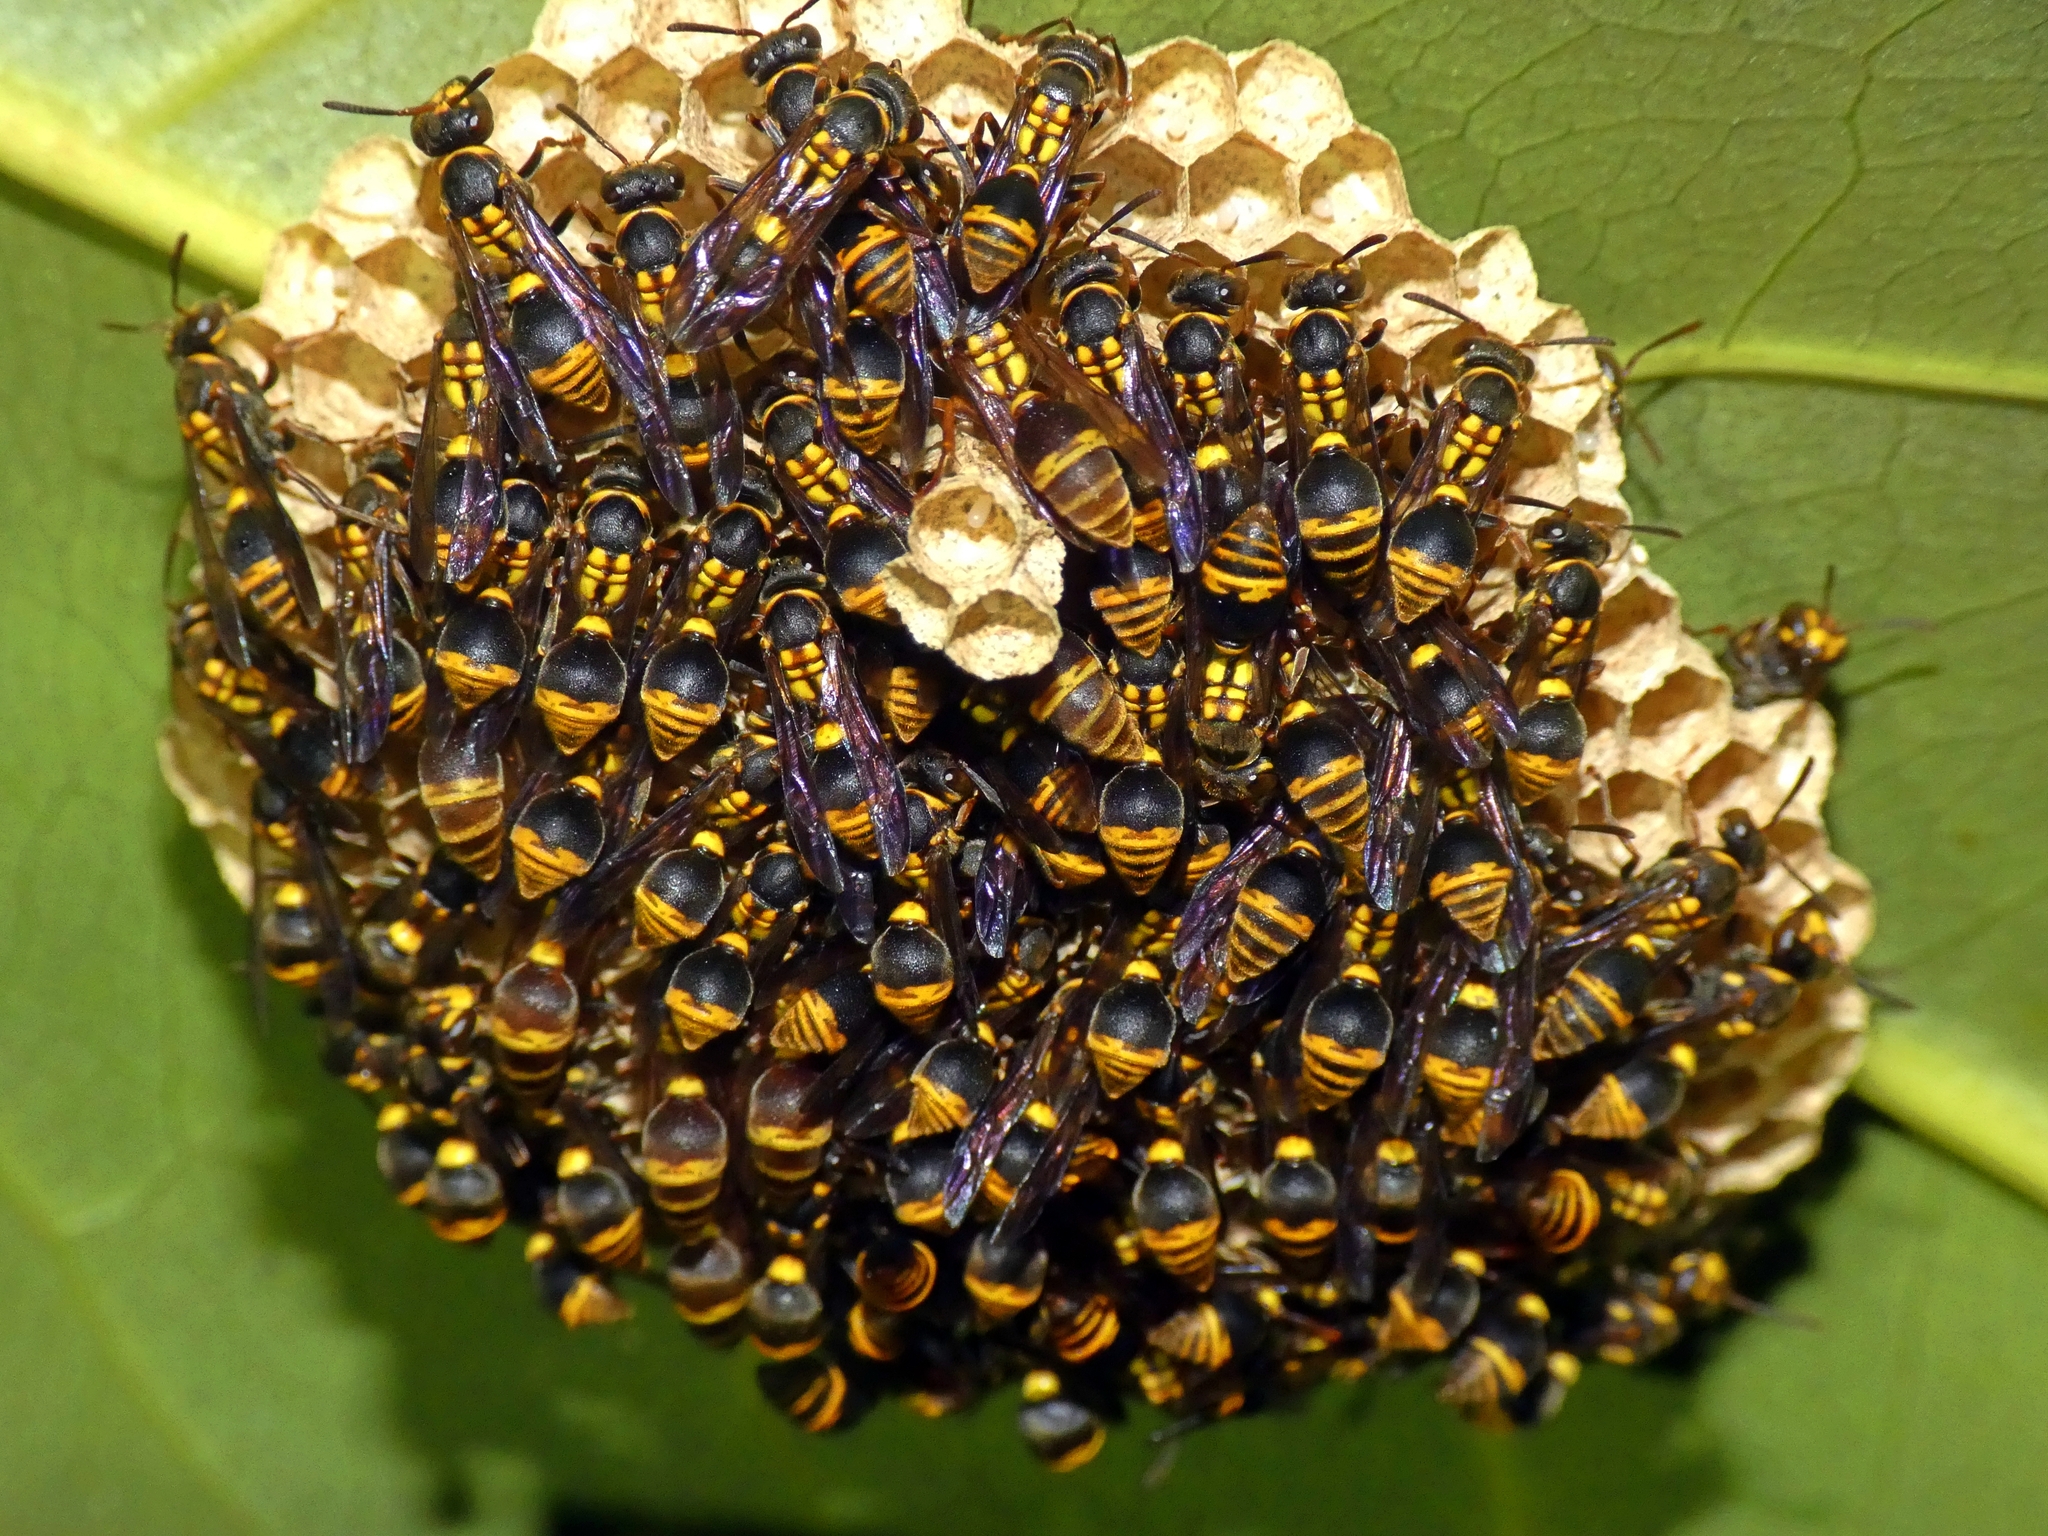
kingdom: Animalia
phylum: Arthropoda
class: Insecta
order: Hymenoptera
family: Vespidae
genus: Ropalidia
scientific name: Ropalidia socialistica
